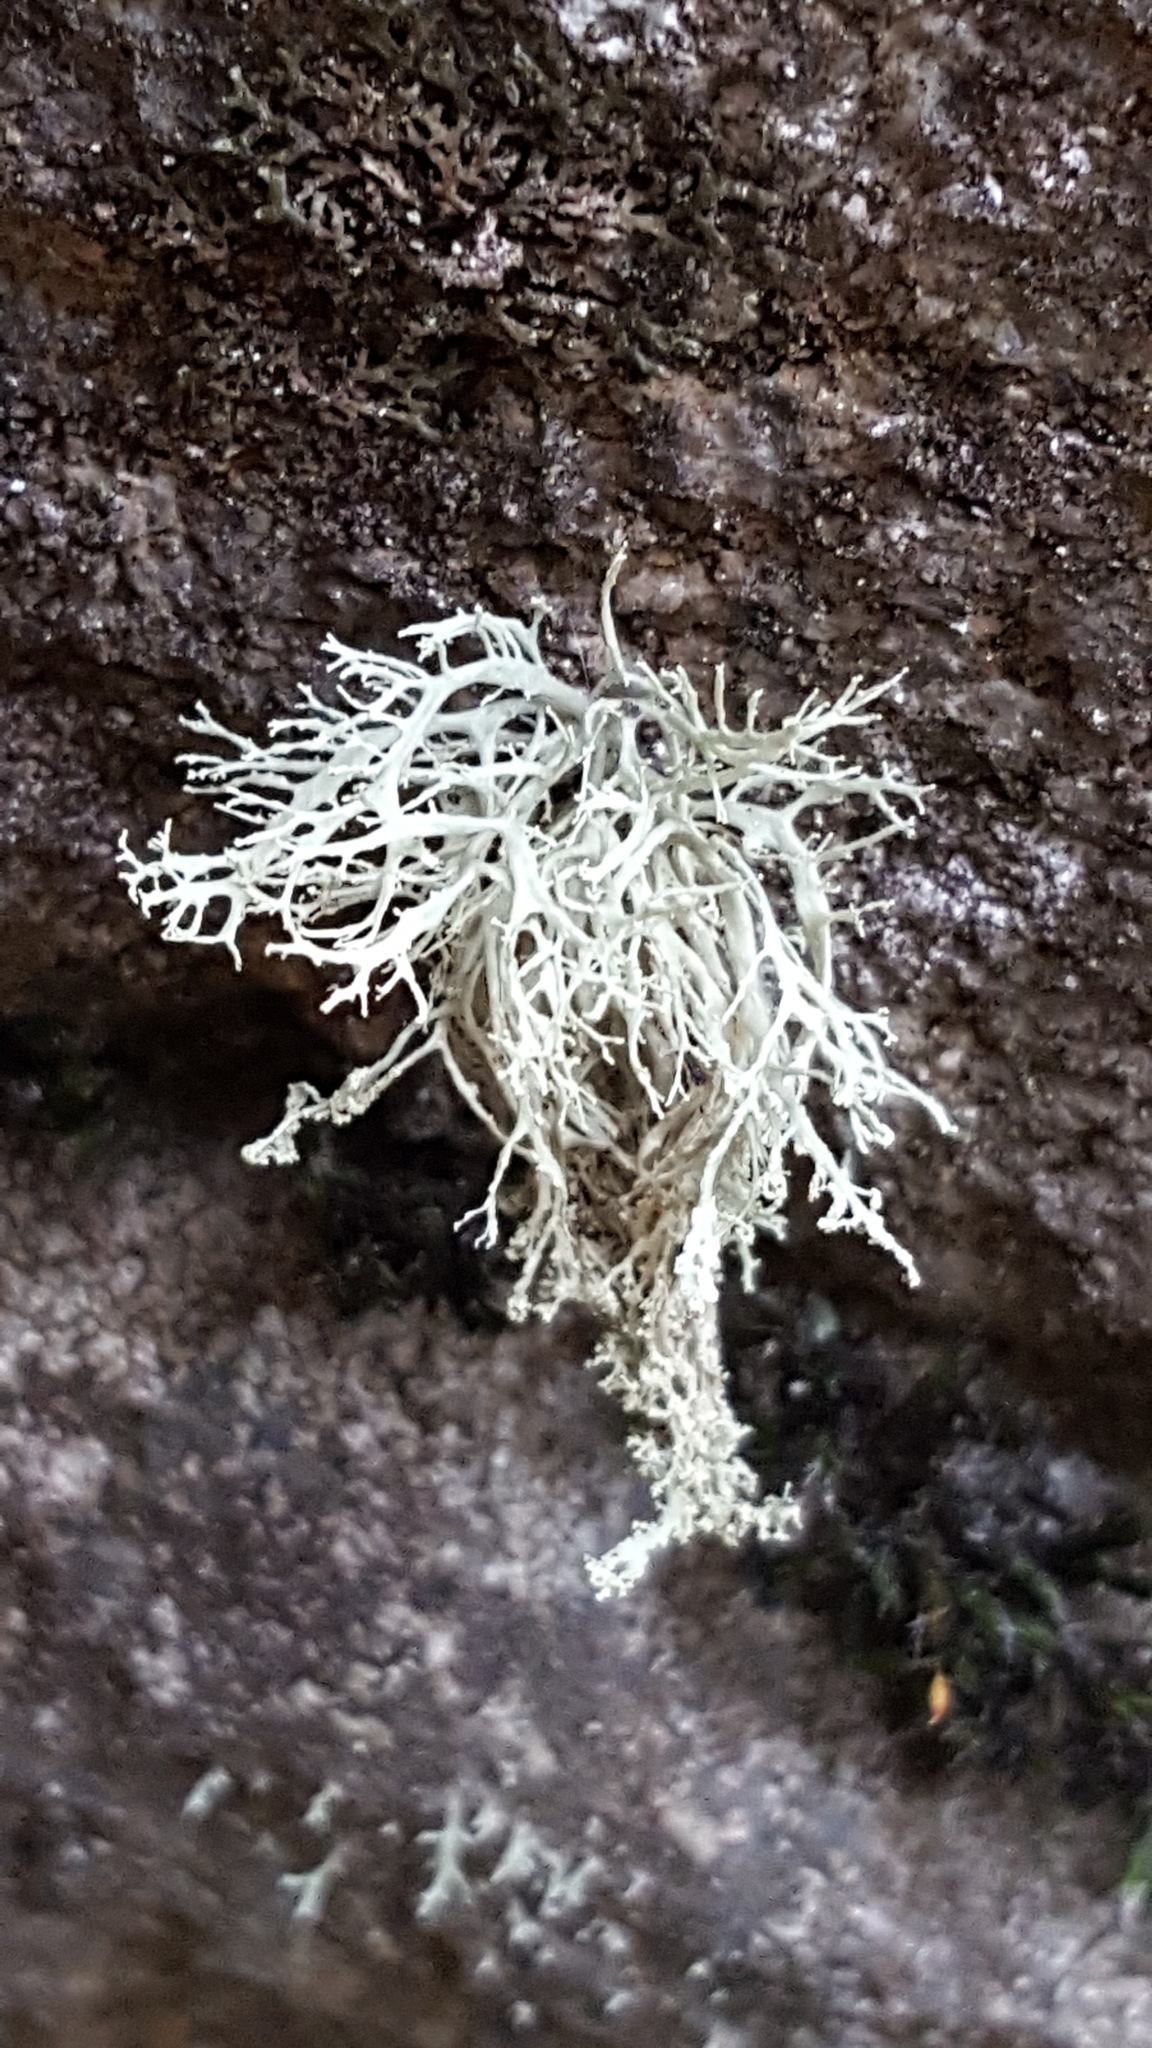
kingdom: Fungi
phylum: Ascomycota
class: Lecanoromycetes
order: Lecanorales
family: Ramalinaceae
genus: Ramalina
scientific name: Ramalina intermedia
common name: Rock bushy lichen
